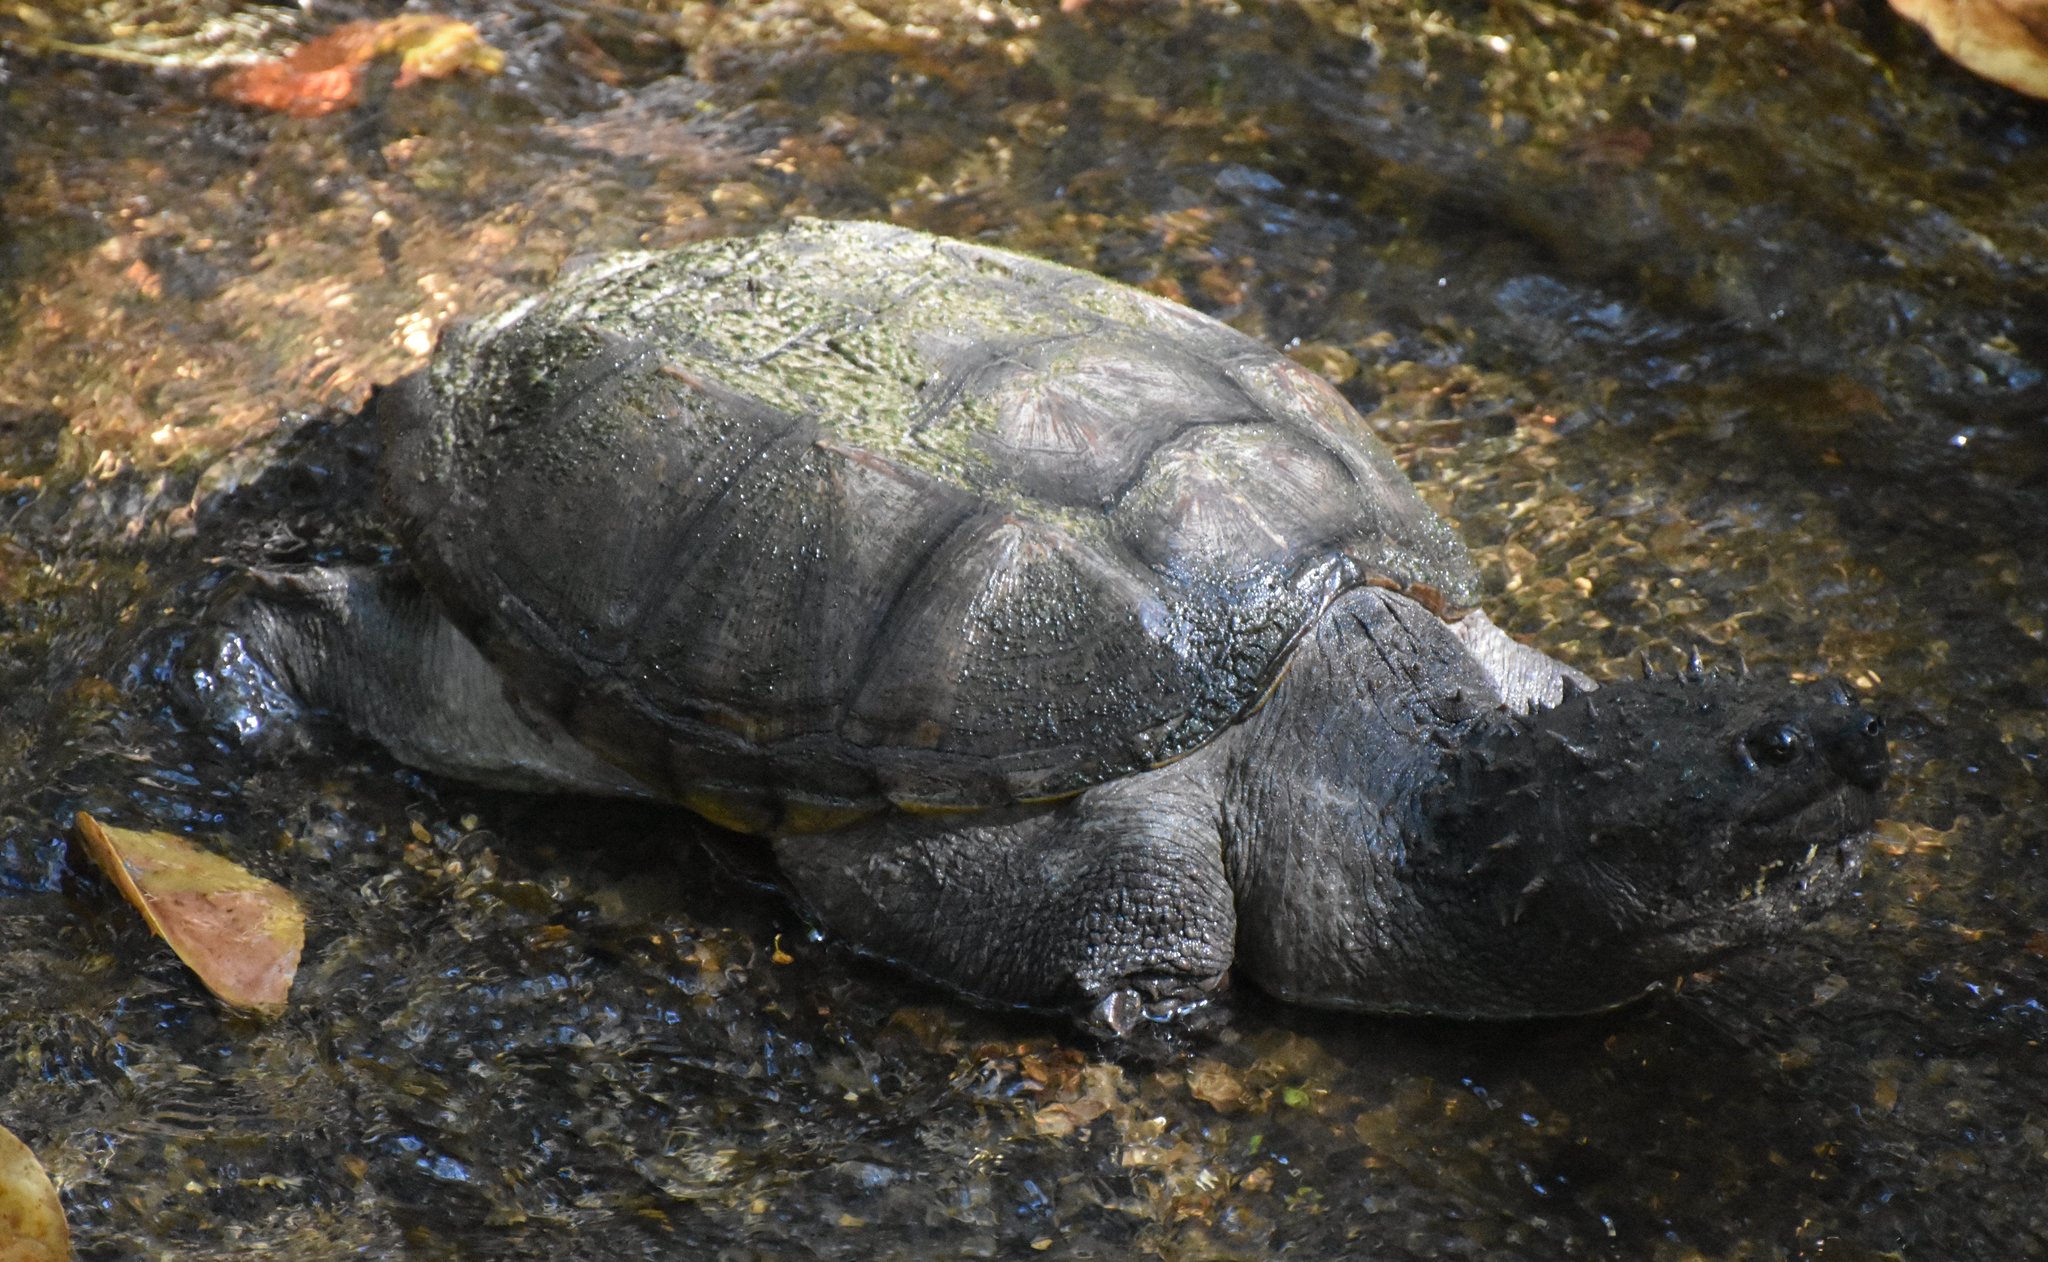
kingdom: Animalia
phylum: Chordata
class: Testudines
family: Chelydridae
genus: Chelydra
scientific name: Chelydra serpentina
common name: Common snapping turtle
